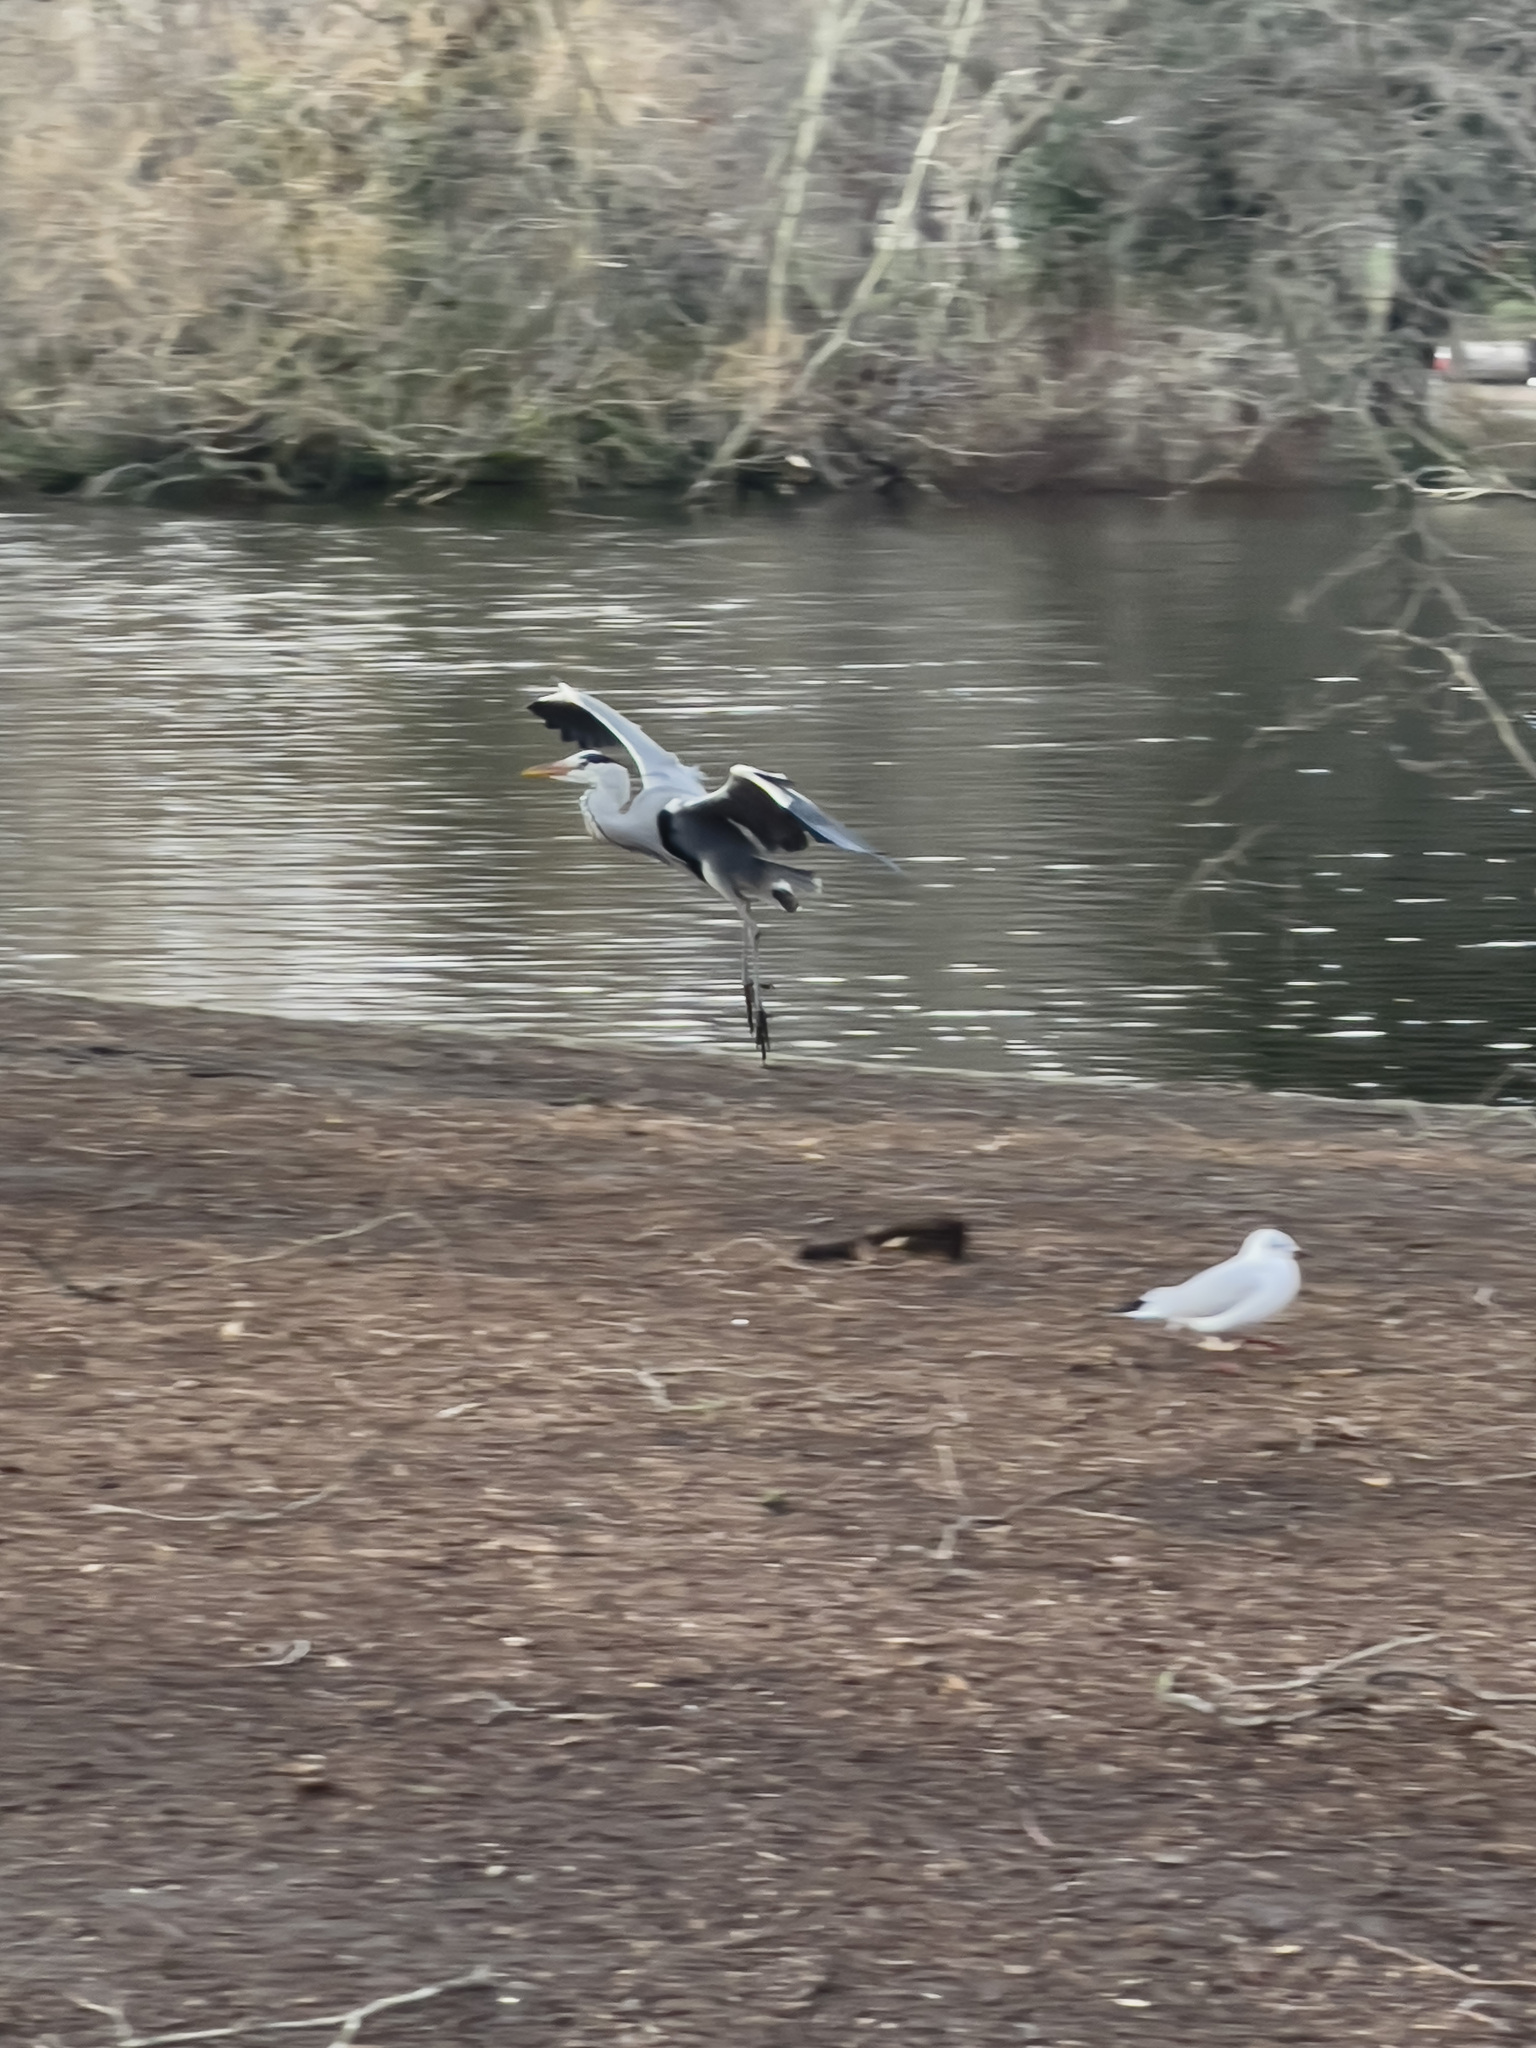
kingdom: Animalia
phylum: Chordata
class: Aves
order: Pelecaniformes
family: Ardeidae
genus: Ardea
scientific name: Ardea cinerea
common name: Grey heron
